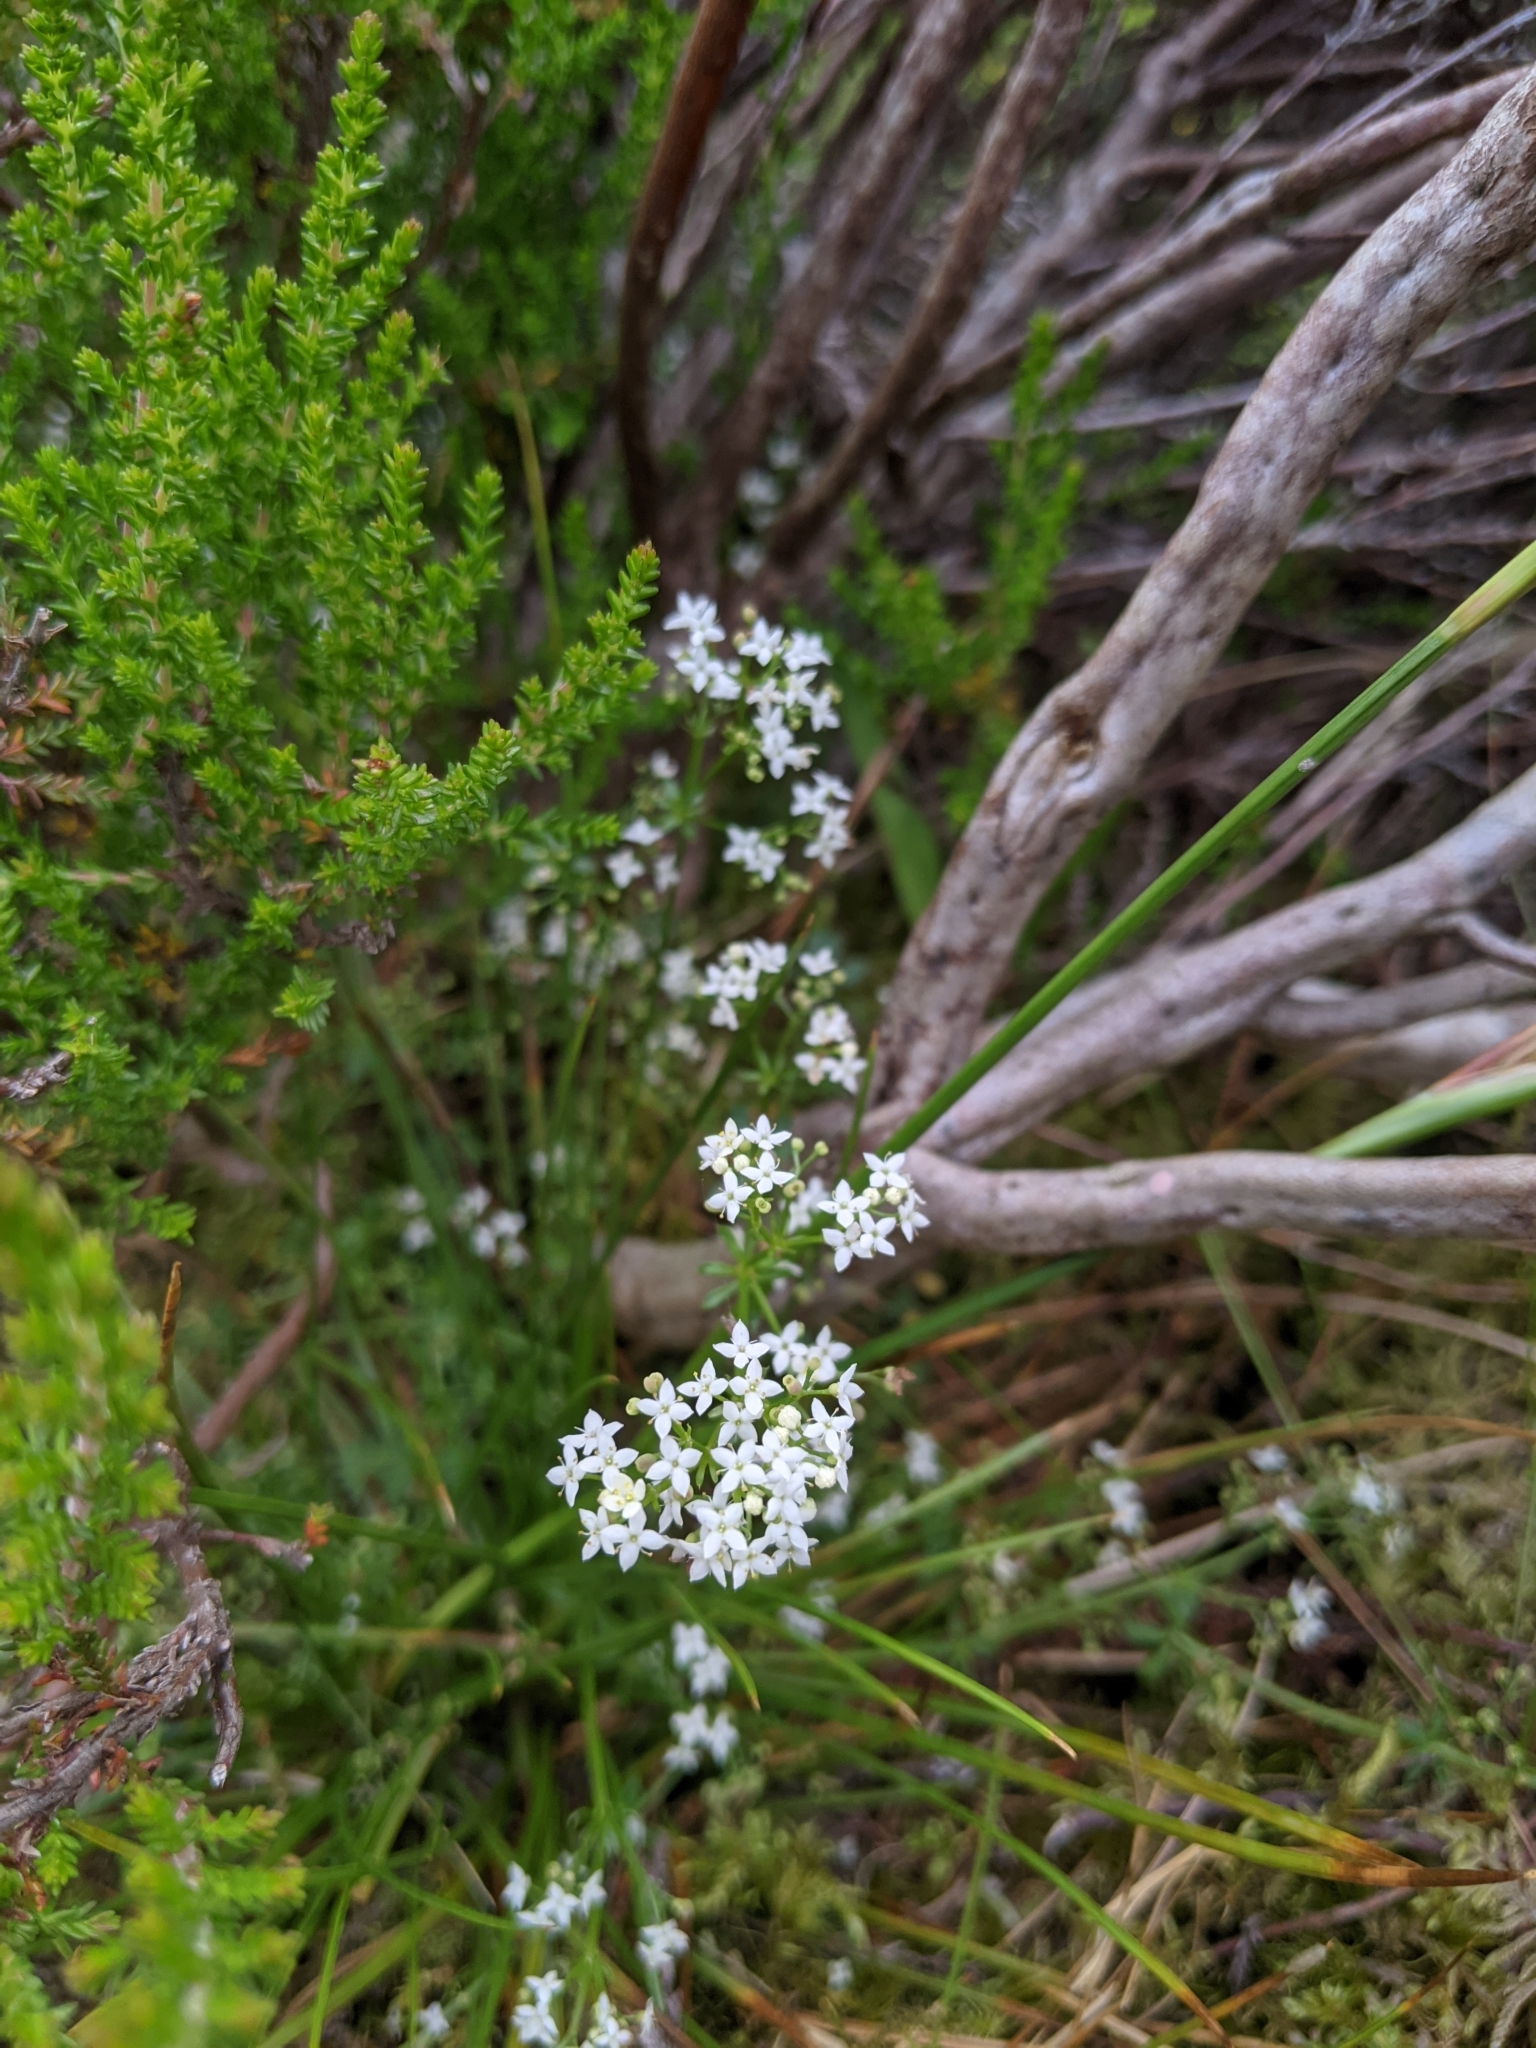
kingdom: Plantae
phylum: Tracheophyta
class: Magnoliopsida
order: Gentianales
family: Rubiaceae
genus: Galium
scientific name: Galium saxatile
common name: Heath bedstraw
